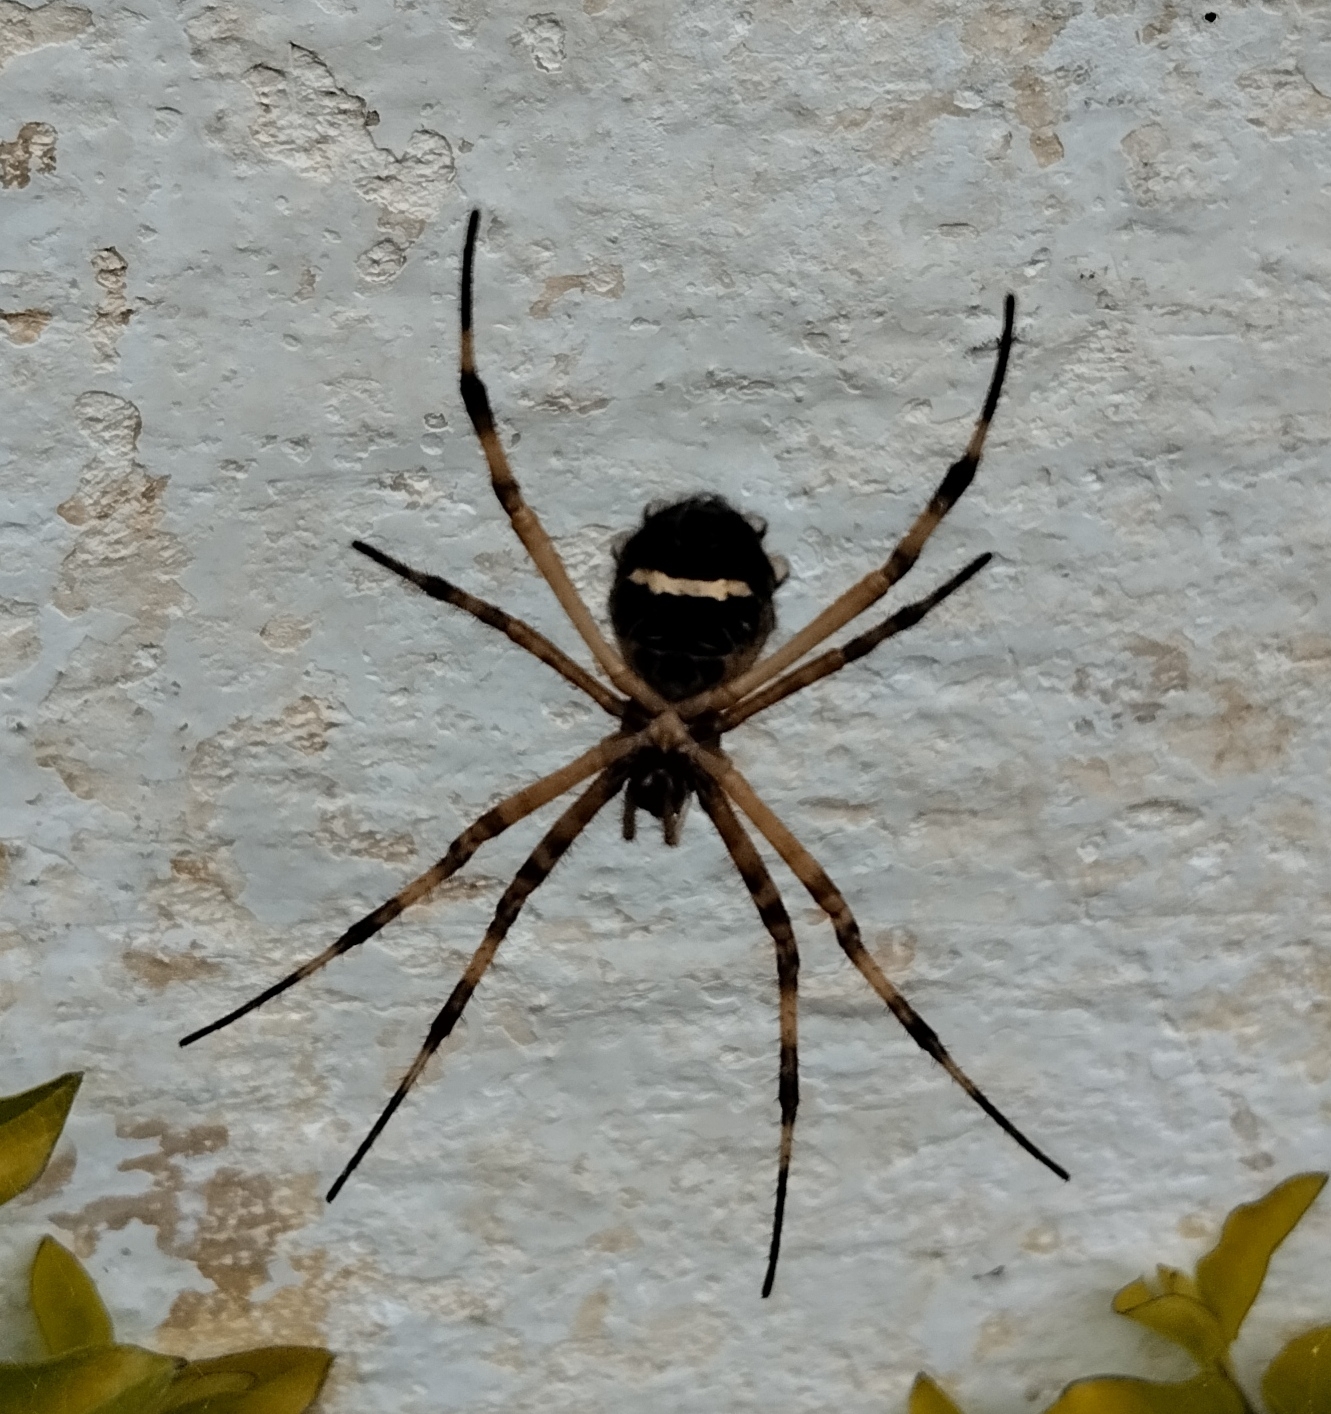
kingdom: Animalia
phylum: Arthropoda
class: Arachnida
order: Araneae
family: Araneidae
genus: Argiope
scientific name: Argiope argentata
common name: Orb weavers
